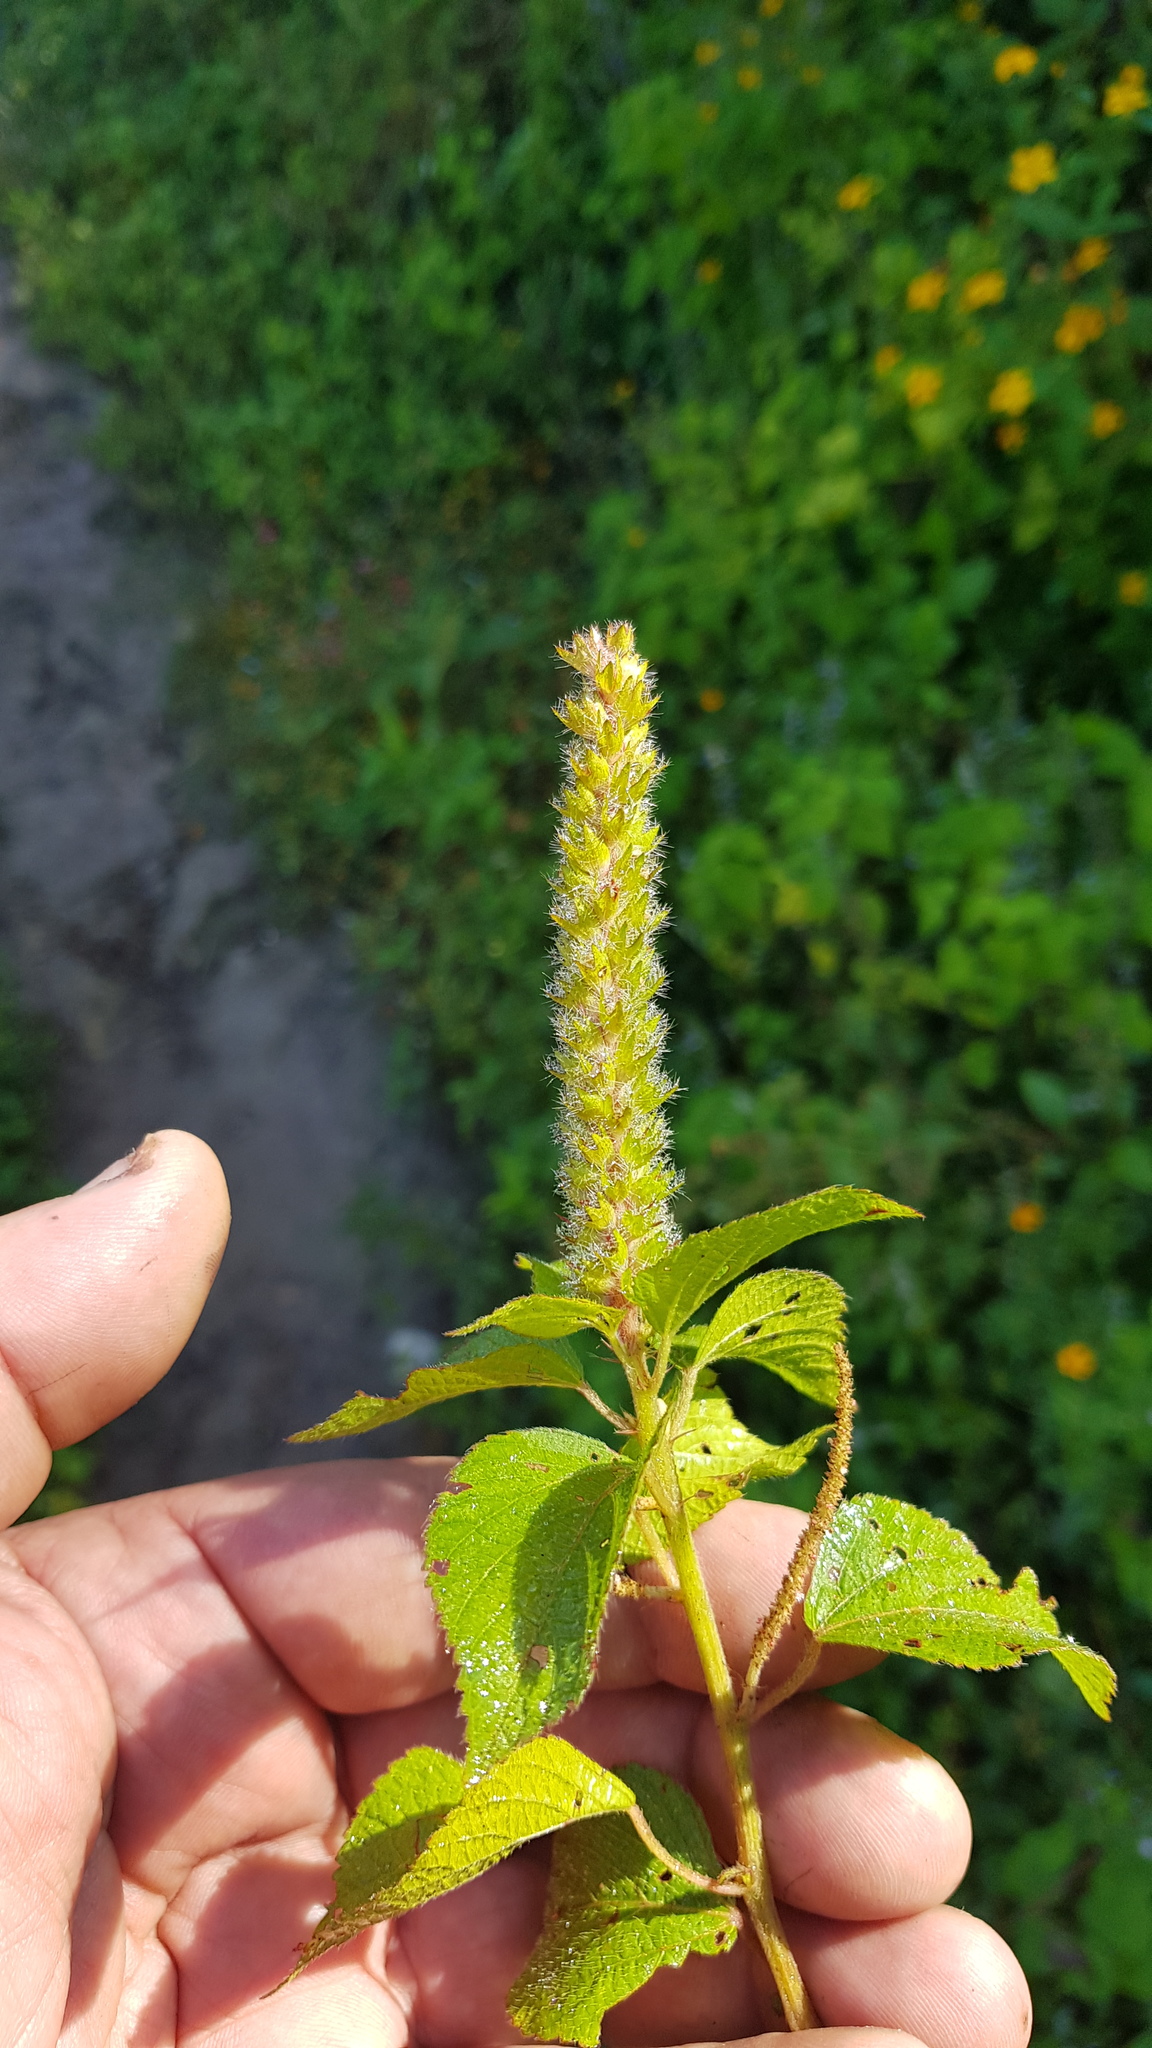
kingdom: Plantae
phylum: Tracheophyta
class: Magnoliopsida
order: Malpighiales
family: Euphorbiaceae
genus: Acalypha
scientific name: Acalypha membranacea
